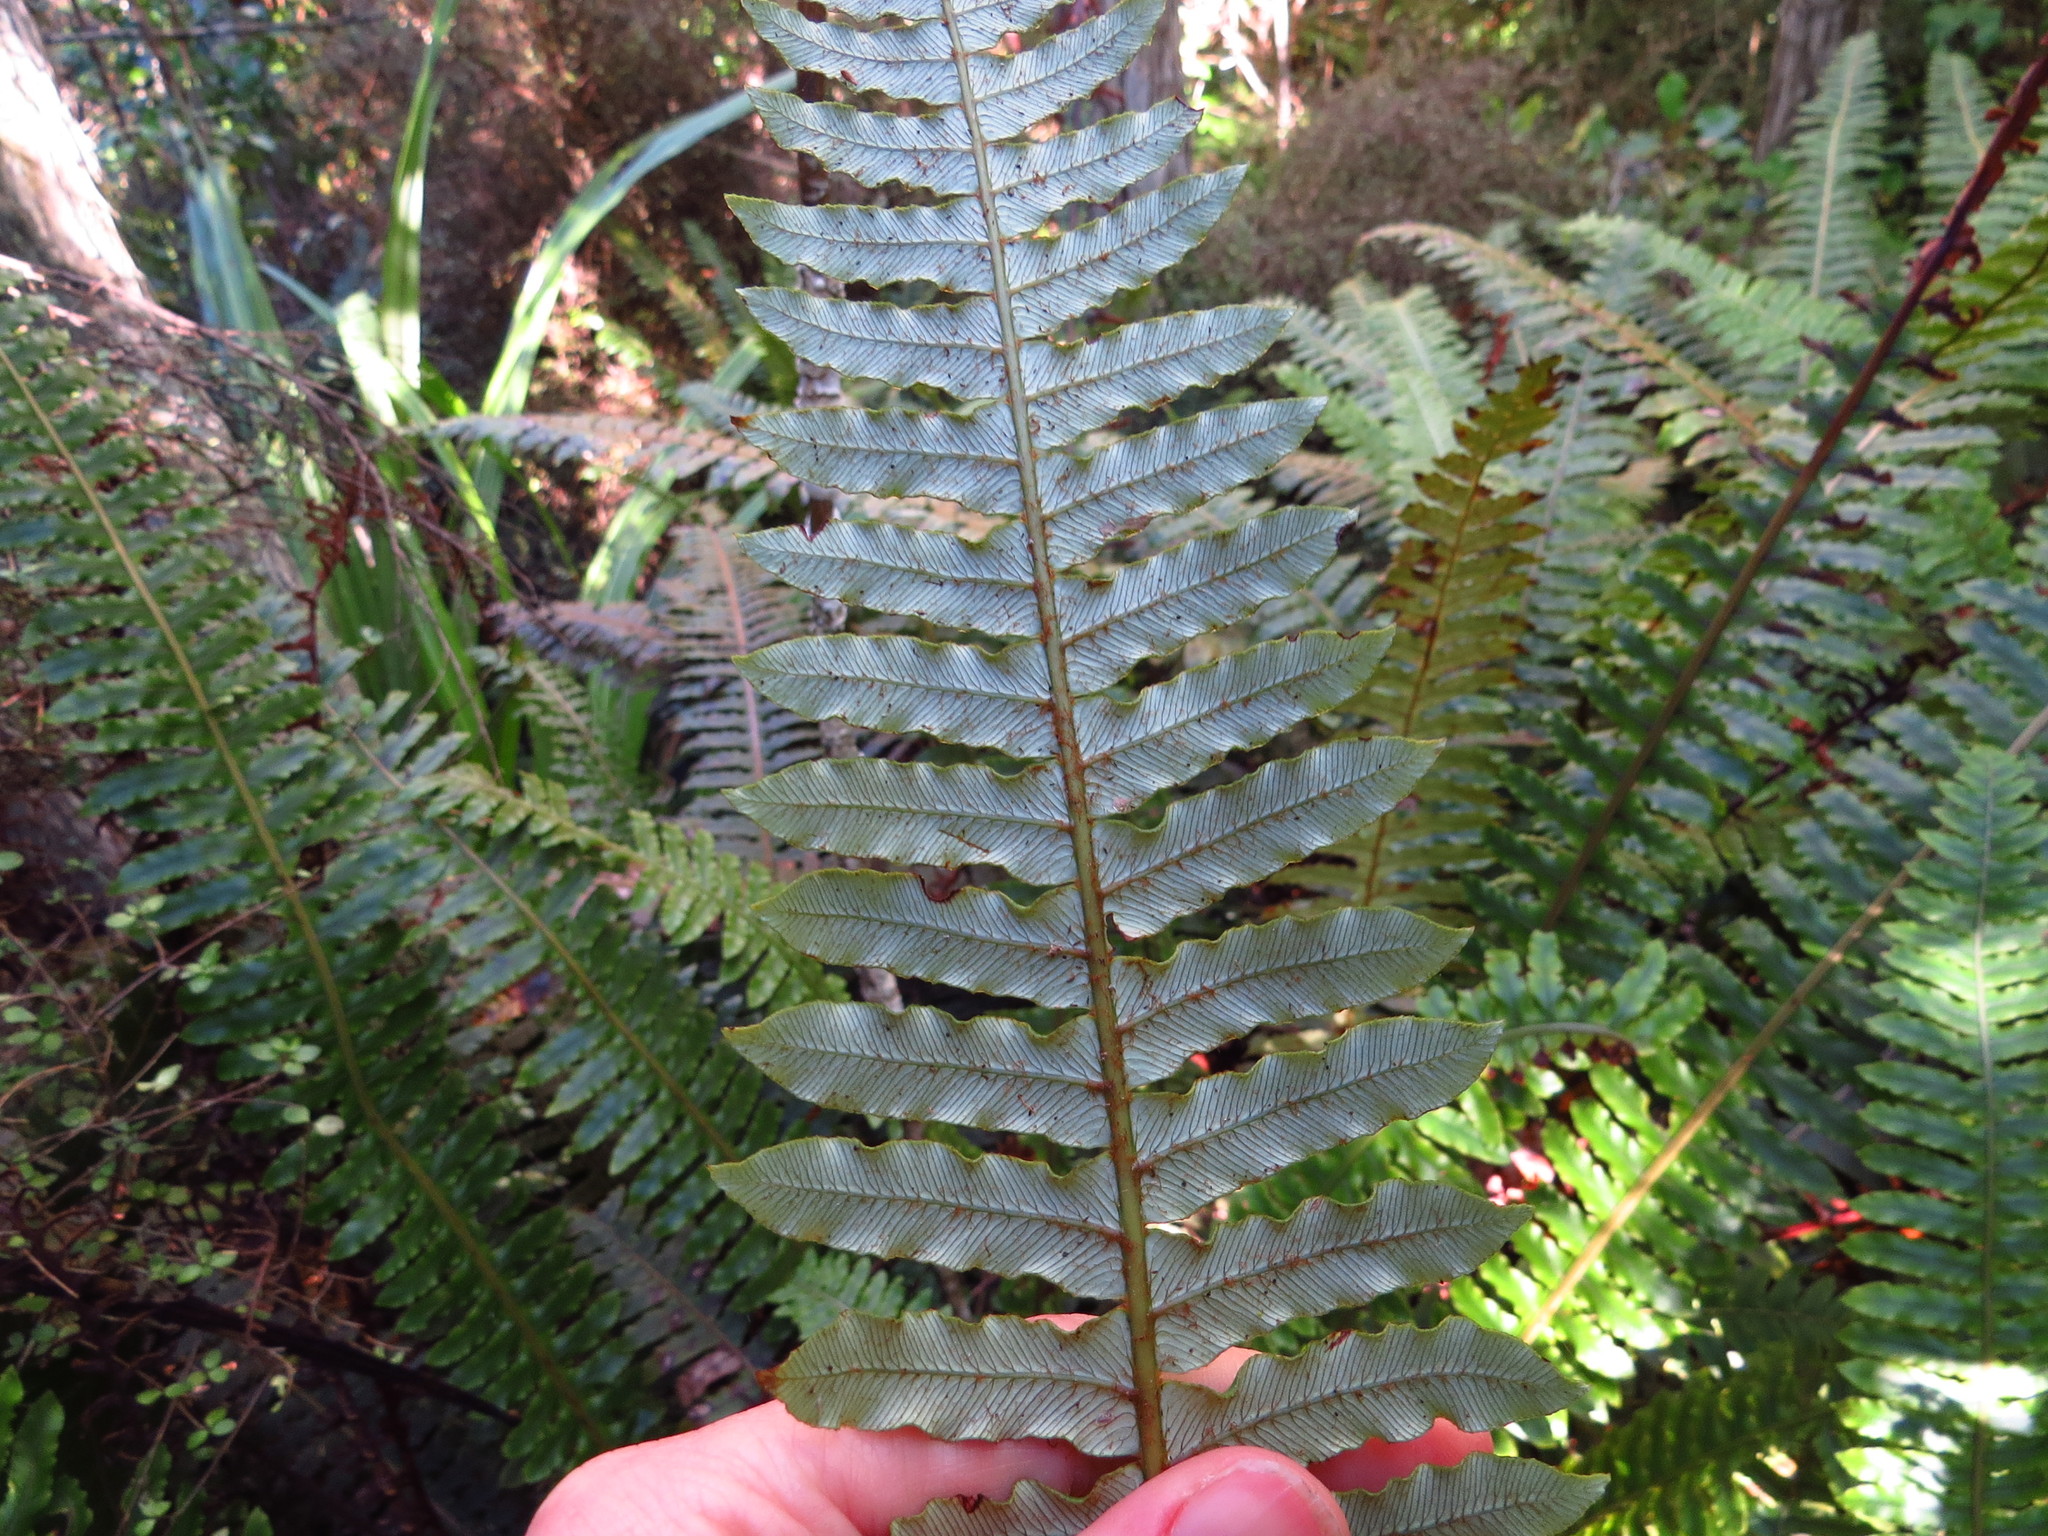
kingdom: Plantae
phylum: Tracheophyta
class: Polypodiopsida
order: Polypodiales
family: Blechnaceae
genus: Lomaria
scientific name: Lomaria discolor
